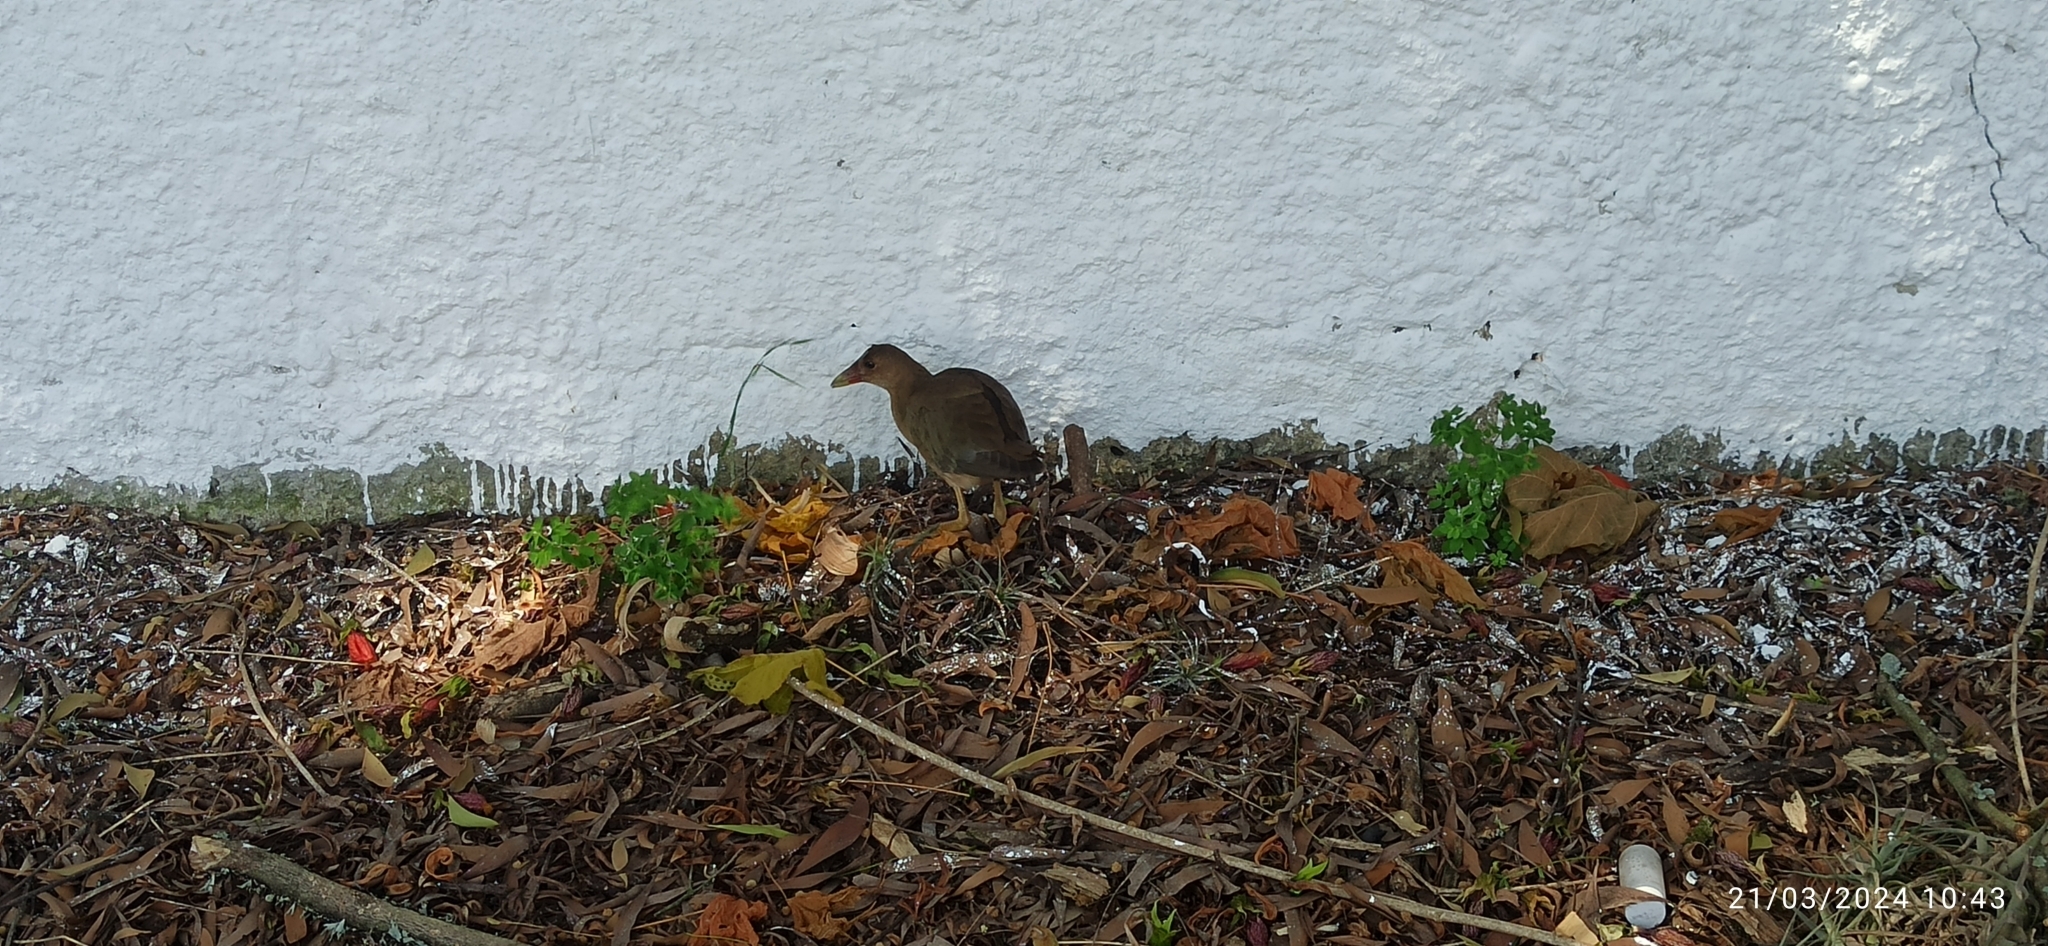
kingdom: Animalia
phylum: Chordata
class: Aves
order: Gruiformes
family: Rallidae
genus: Porphyrio
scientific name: Porphyrio martinica
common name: Purple gallinule
